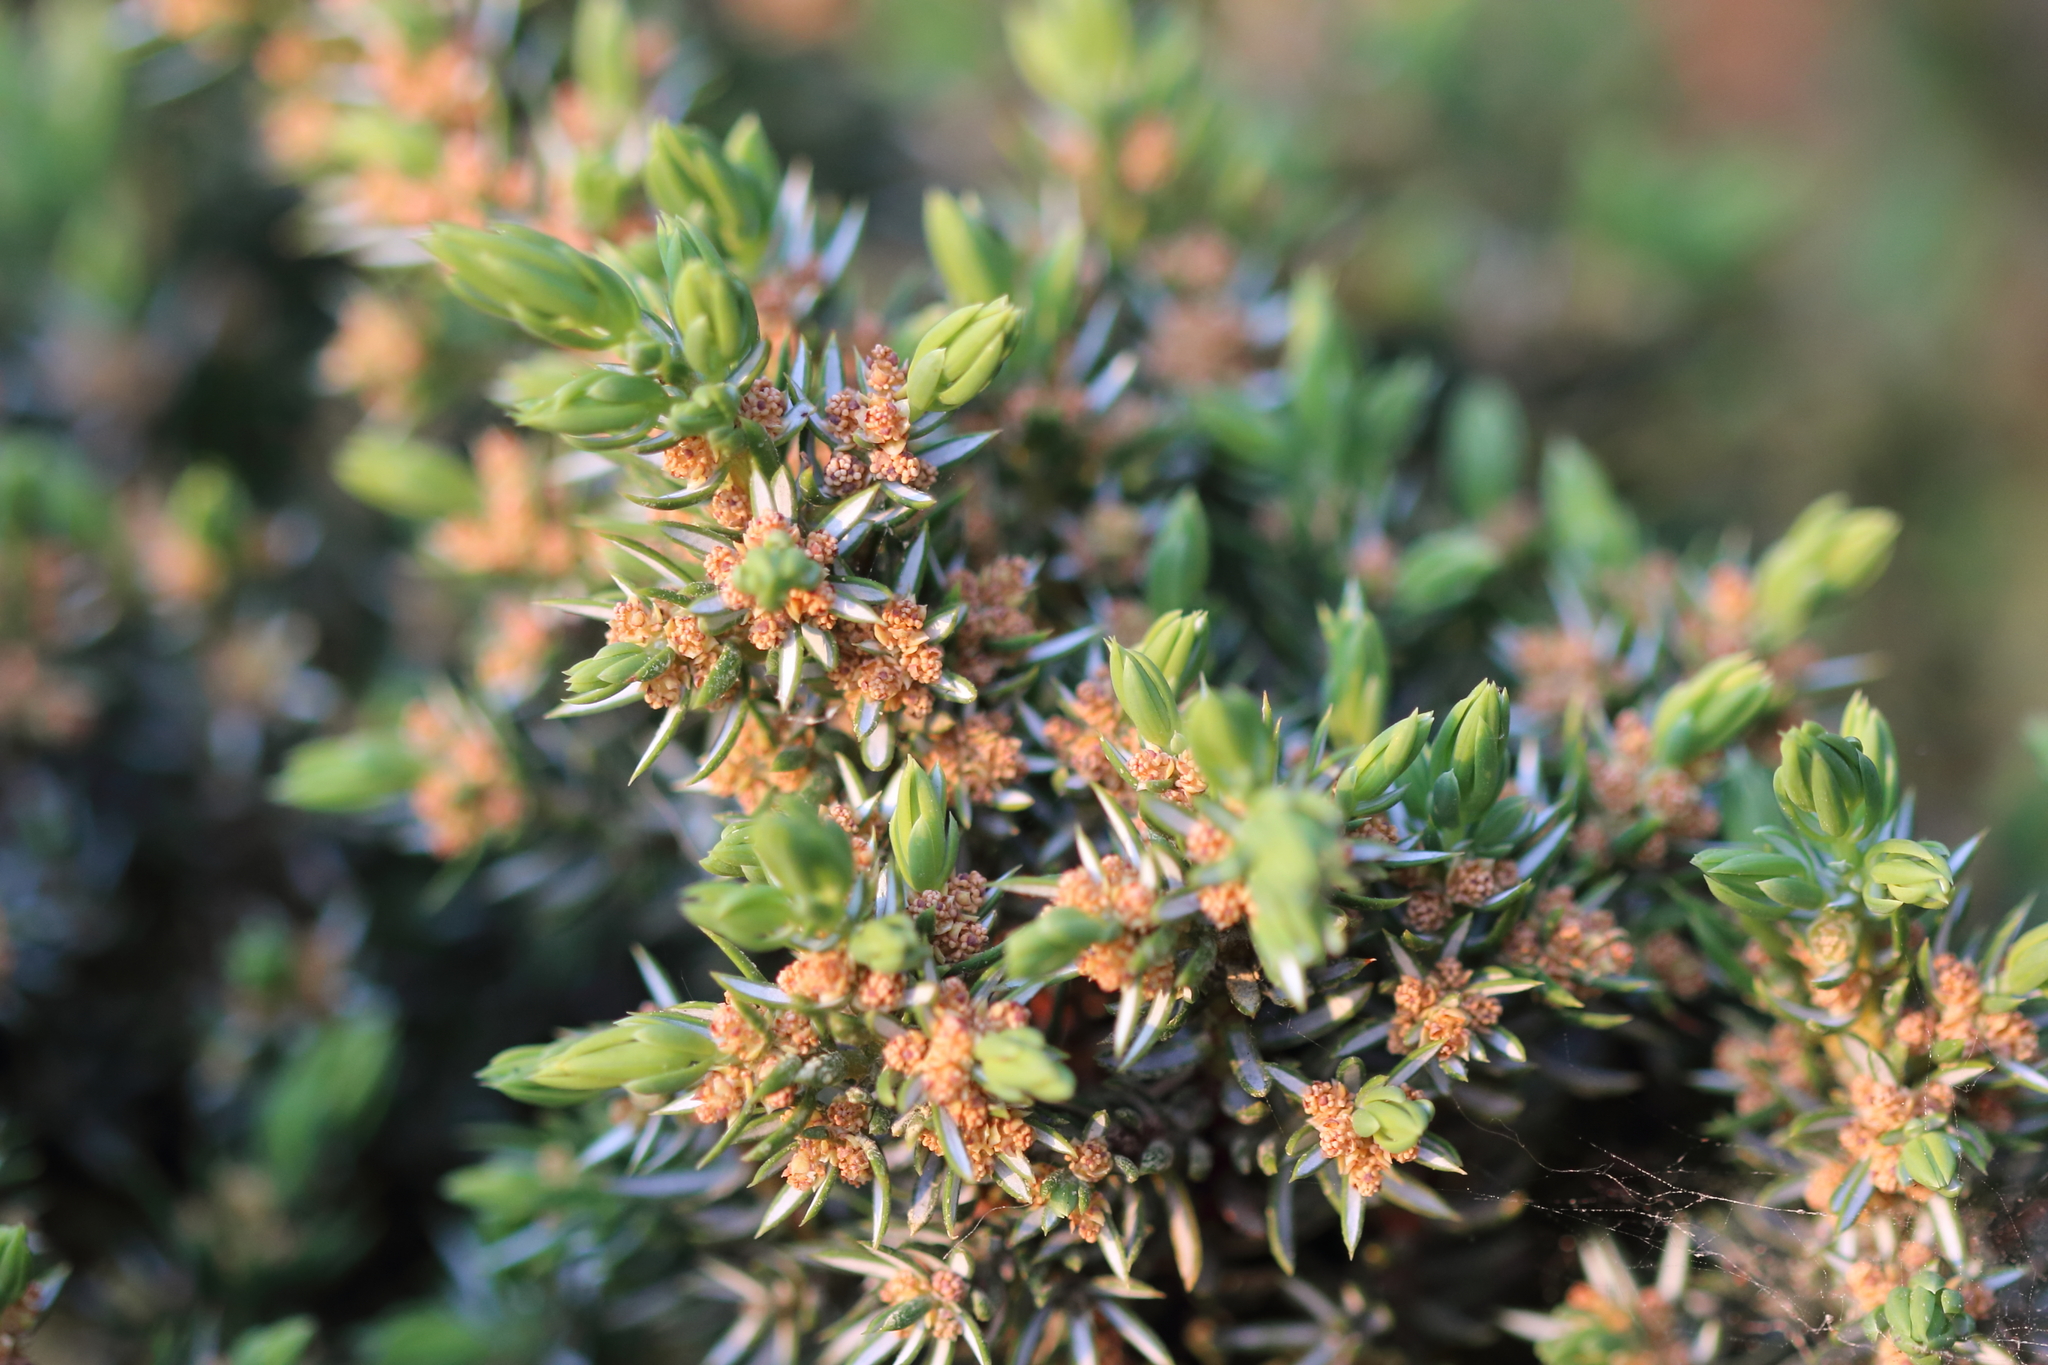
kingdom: Plantae
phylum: Tracheophyta
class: Pinopsida
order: Pinales
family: Cupressaceae
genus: Juniperus
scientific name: Juniperus communis
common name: Common juniper
